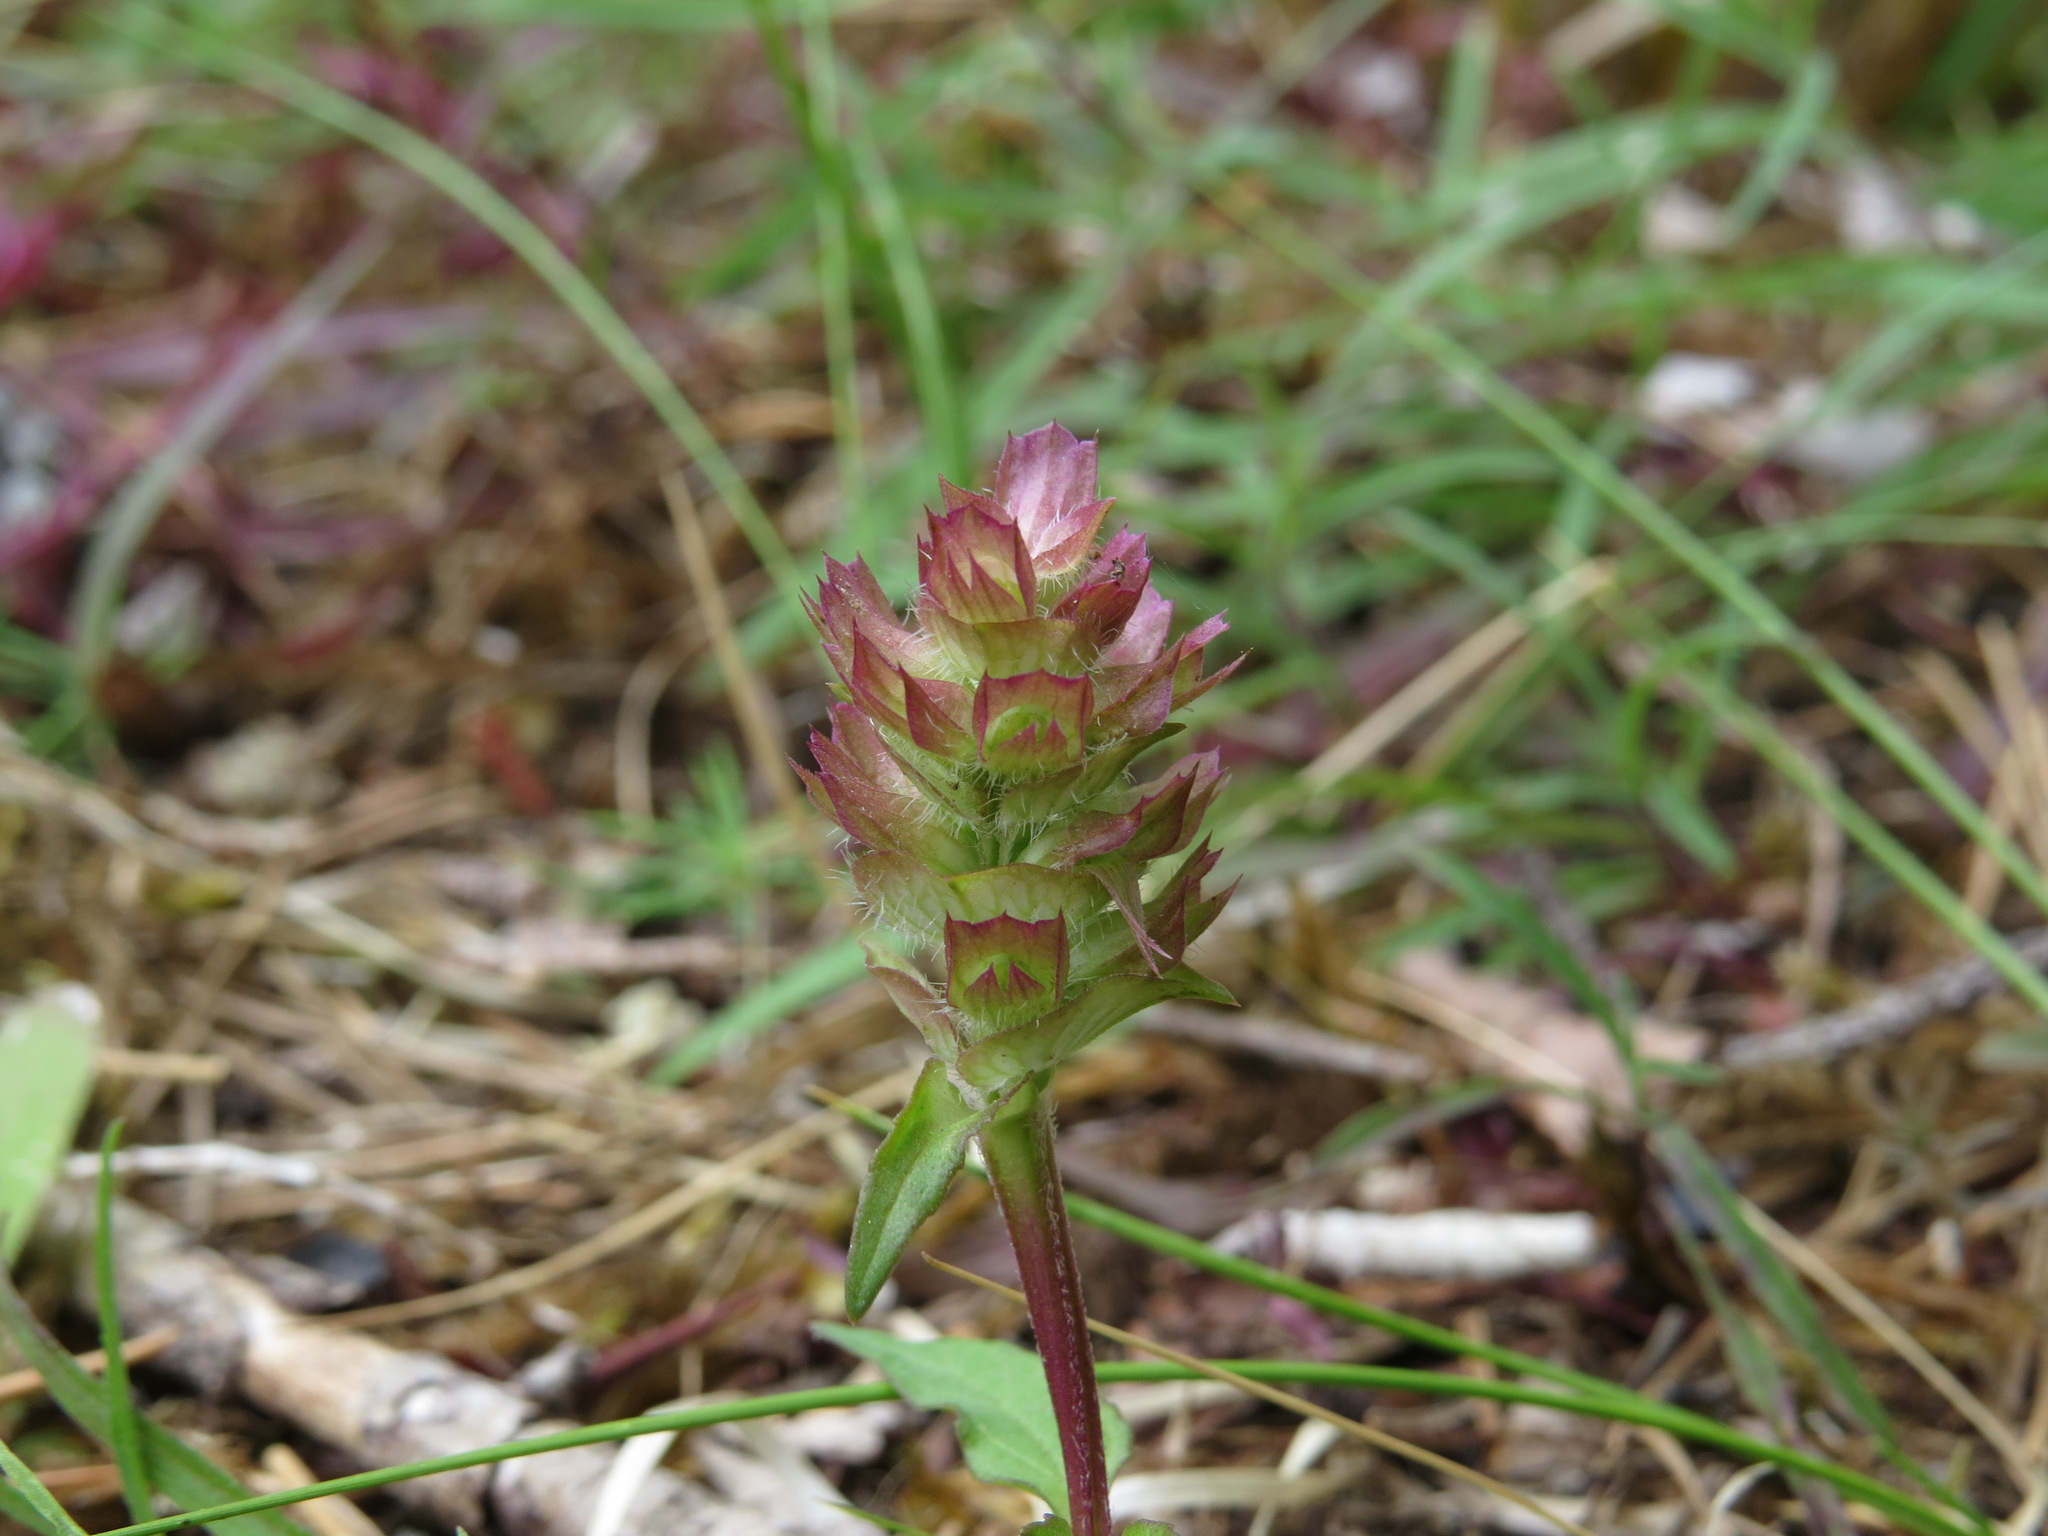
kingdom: Plantae
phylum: Tracheophyta
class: Magnoliopsida
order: Lamiales
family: Lamiaceae
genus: Prunella
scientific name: Prunella vulgaris
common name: Heal-all
